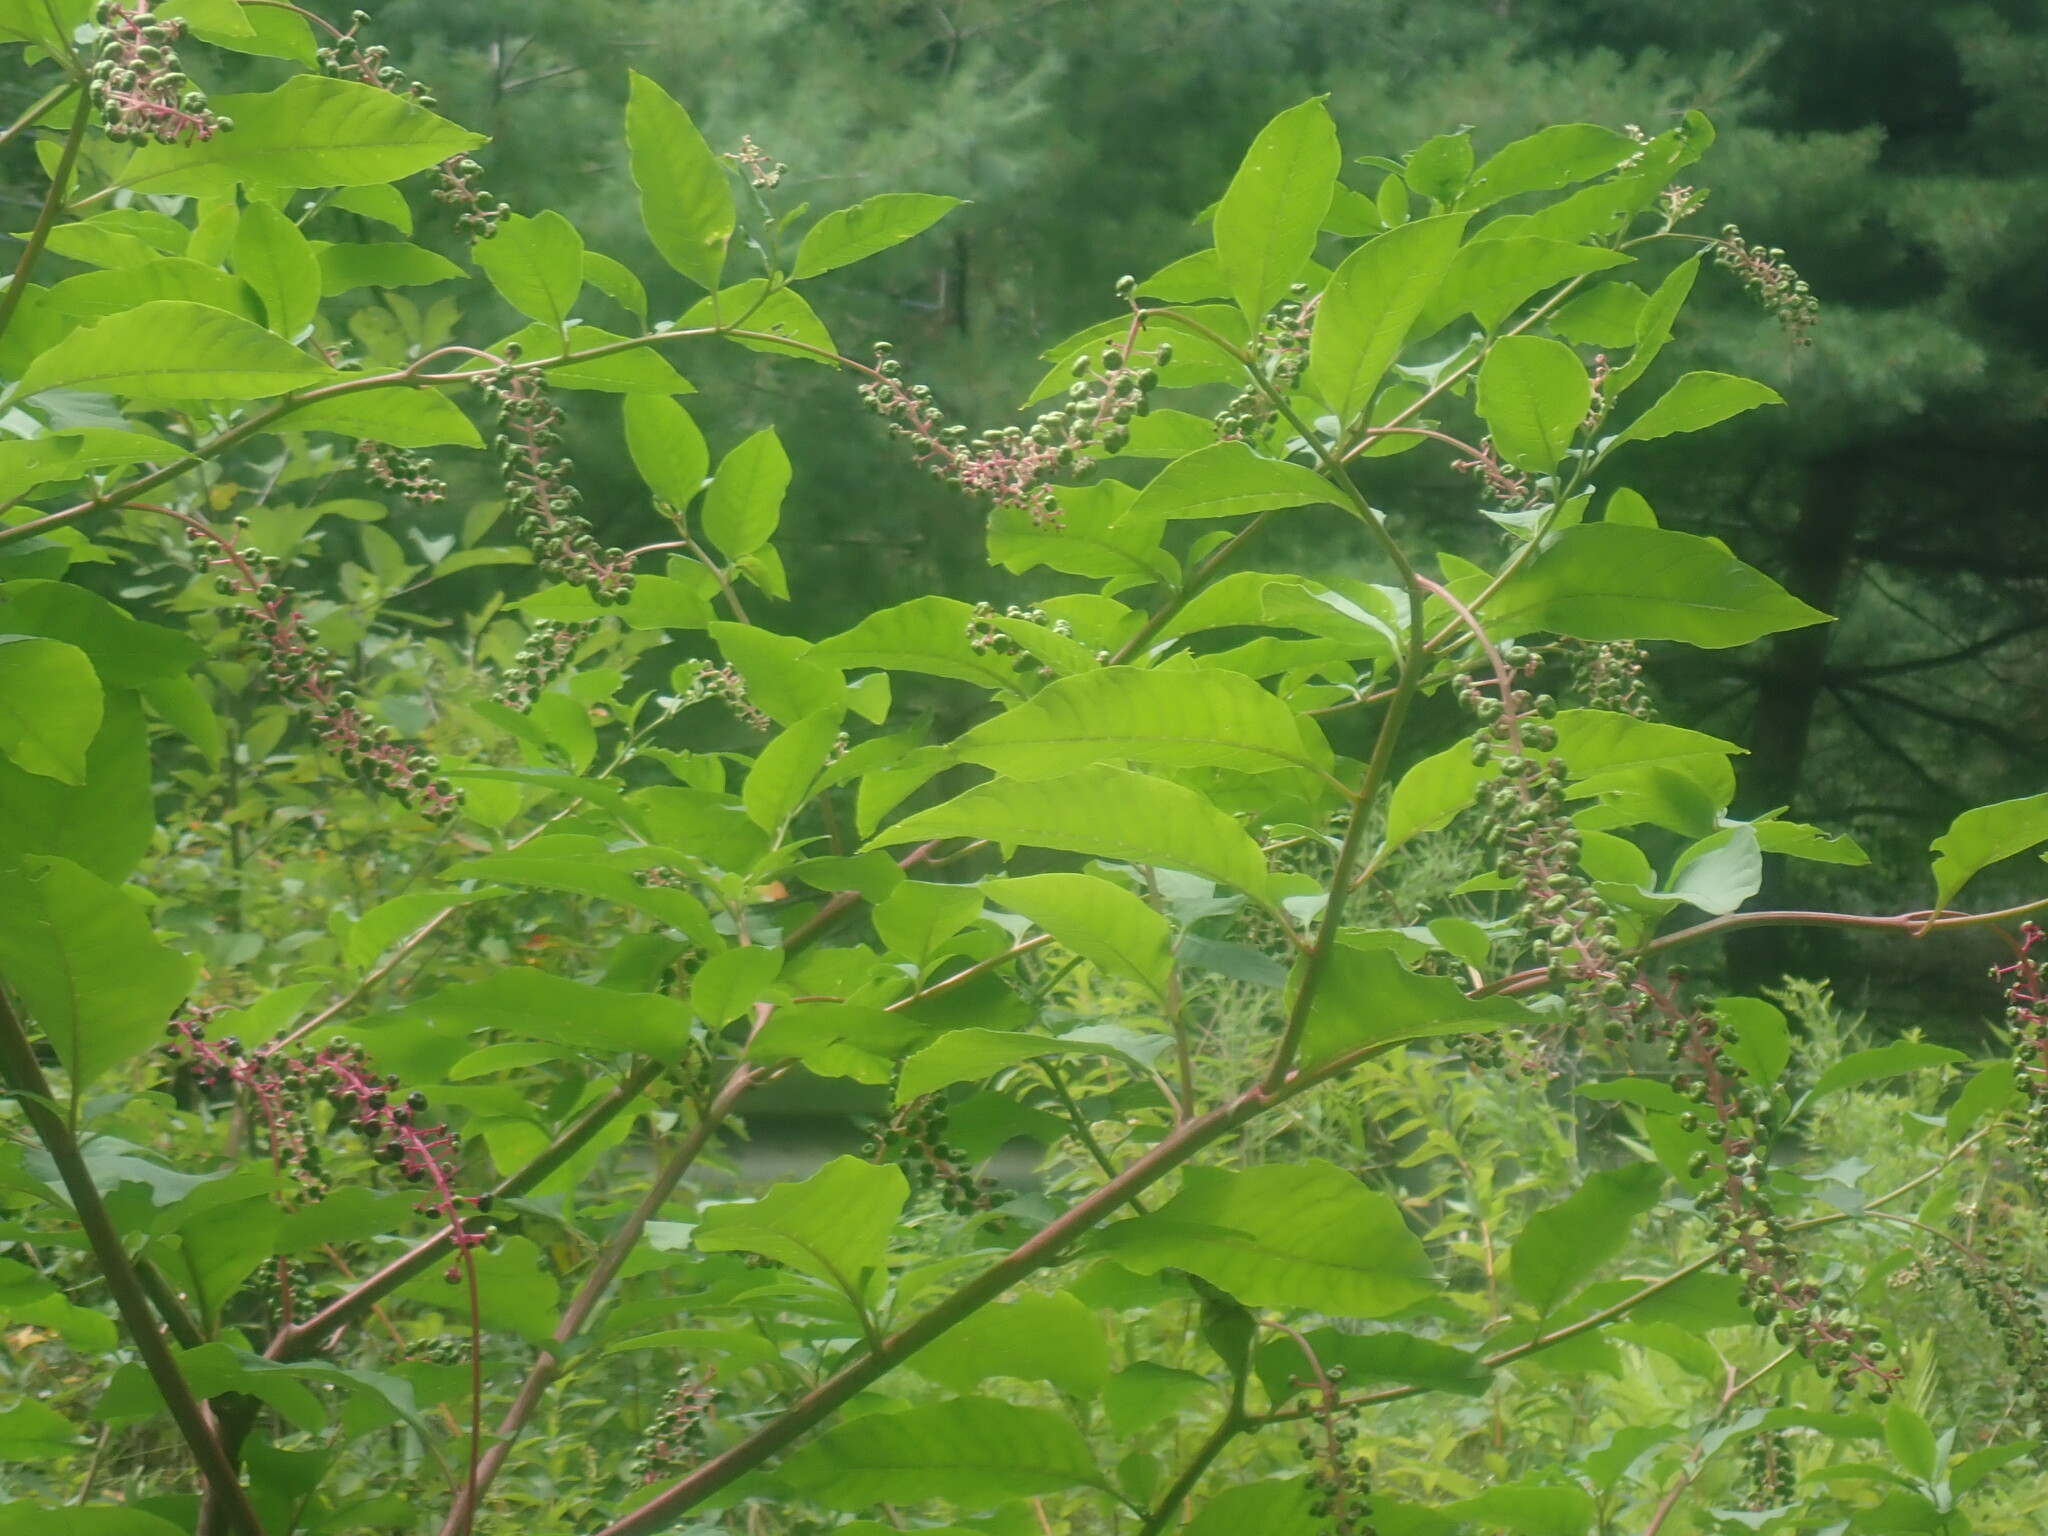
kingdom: Plantae
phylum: Tracheophyta
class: Magnoliopsida
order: Caryophyllales
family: Phytolaccaceae
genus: Phytolacca
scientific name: Phytolacca americana
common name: American pokeweed
